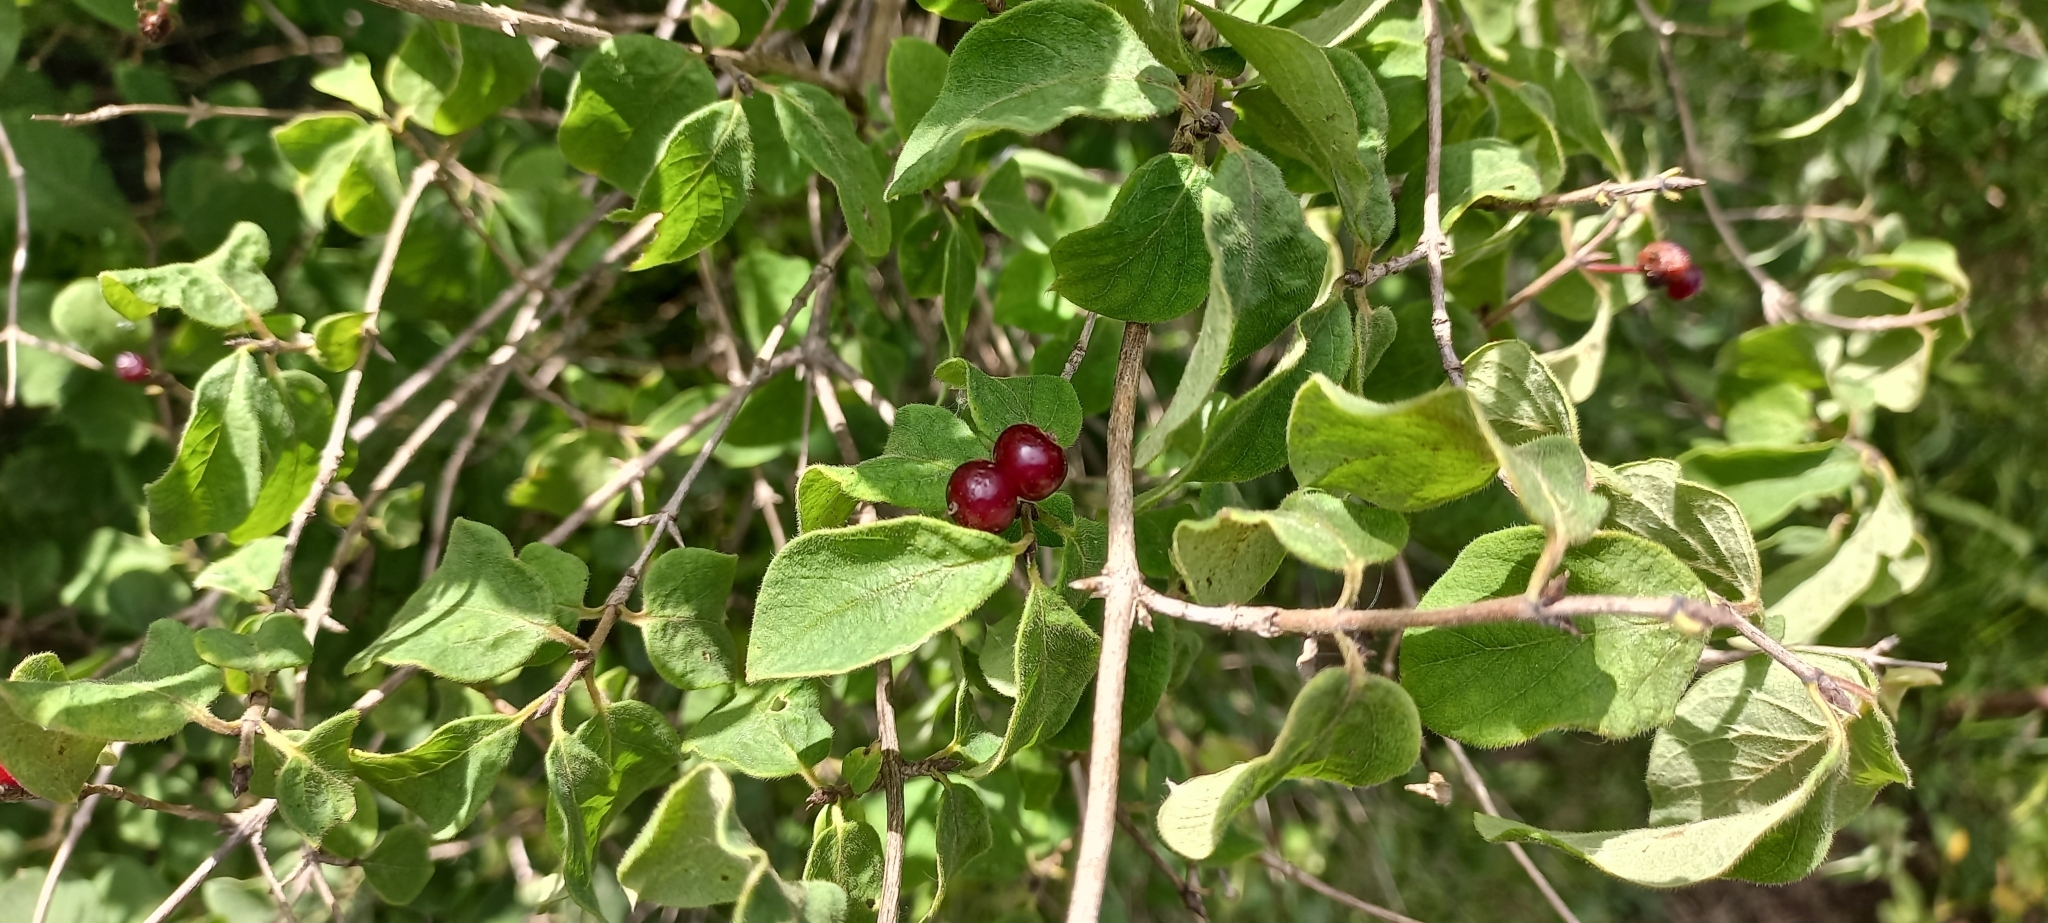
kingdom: Plantae
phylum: Tracheophyta
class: Magnoliopsida
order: Dipsacales
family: Caprifoliaceae
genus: Lonicera
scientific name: Lonicera xylosteum
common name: Fly honeysuckle
